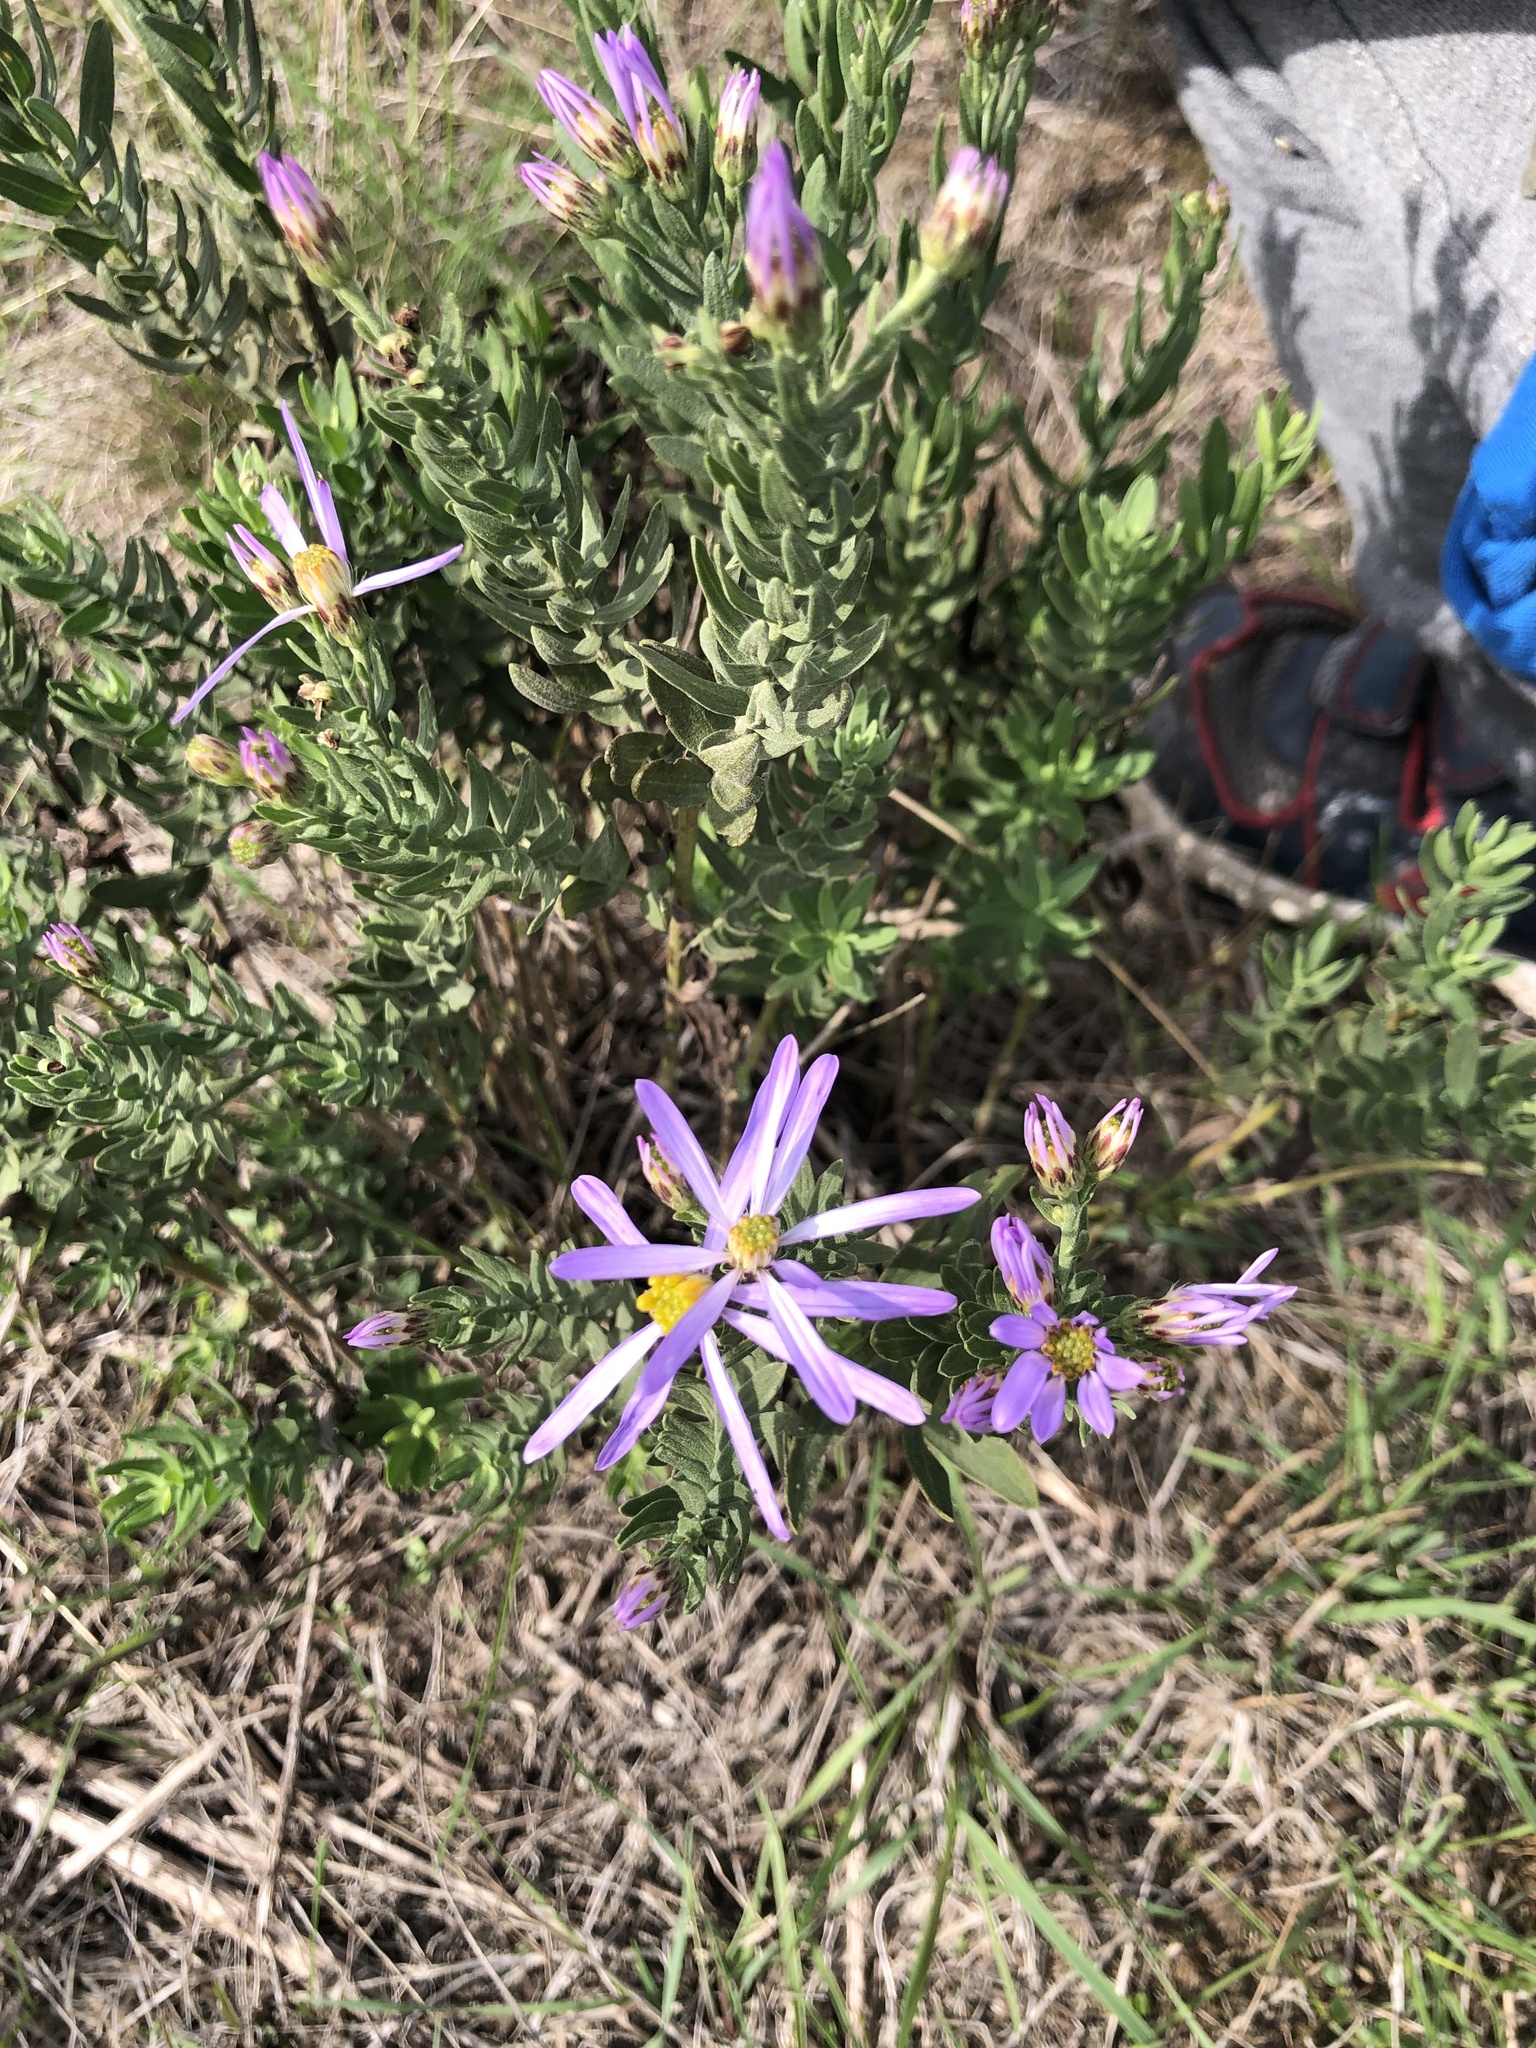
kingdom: Plantae
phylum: Tracheophyta
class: Magnoliopsida
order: Asterales
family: Asteraceae
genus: Galatella
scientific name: Galatella sedifolia
